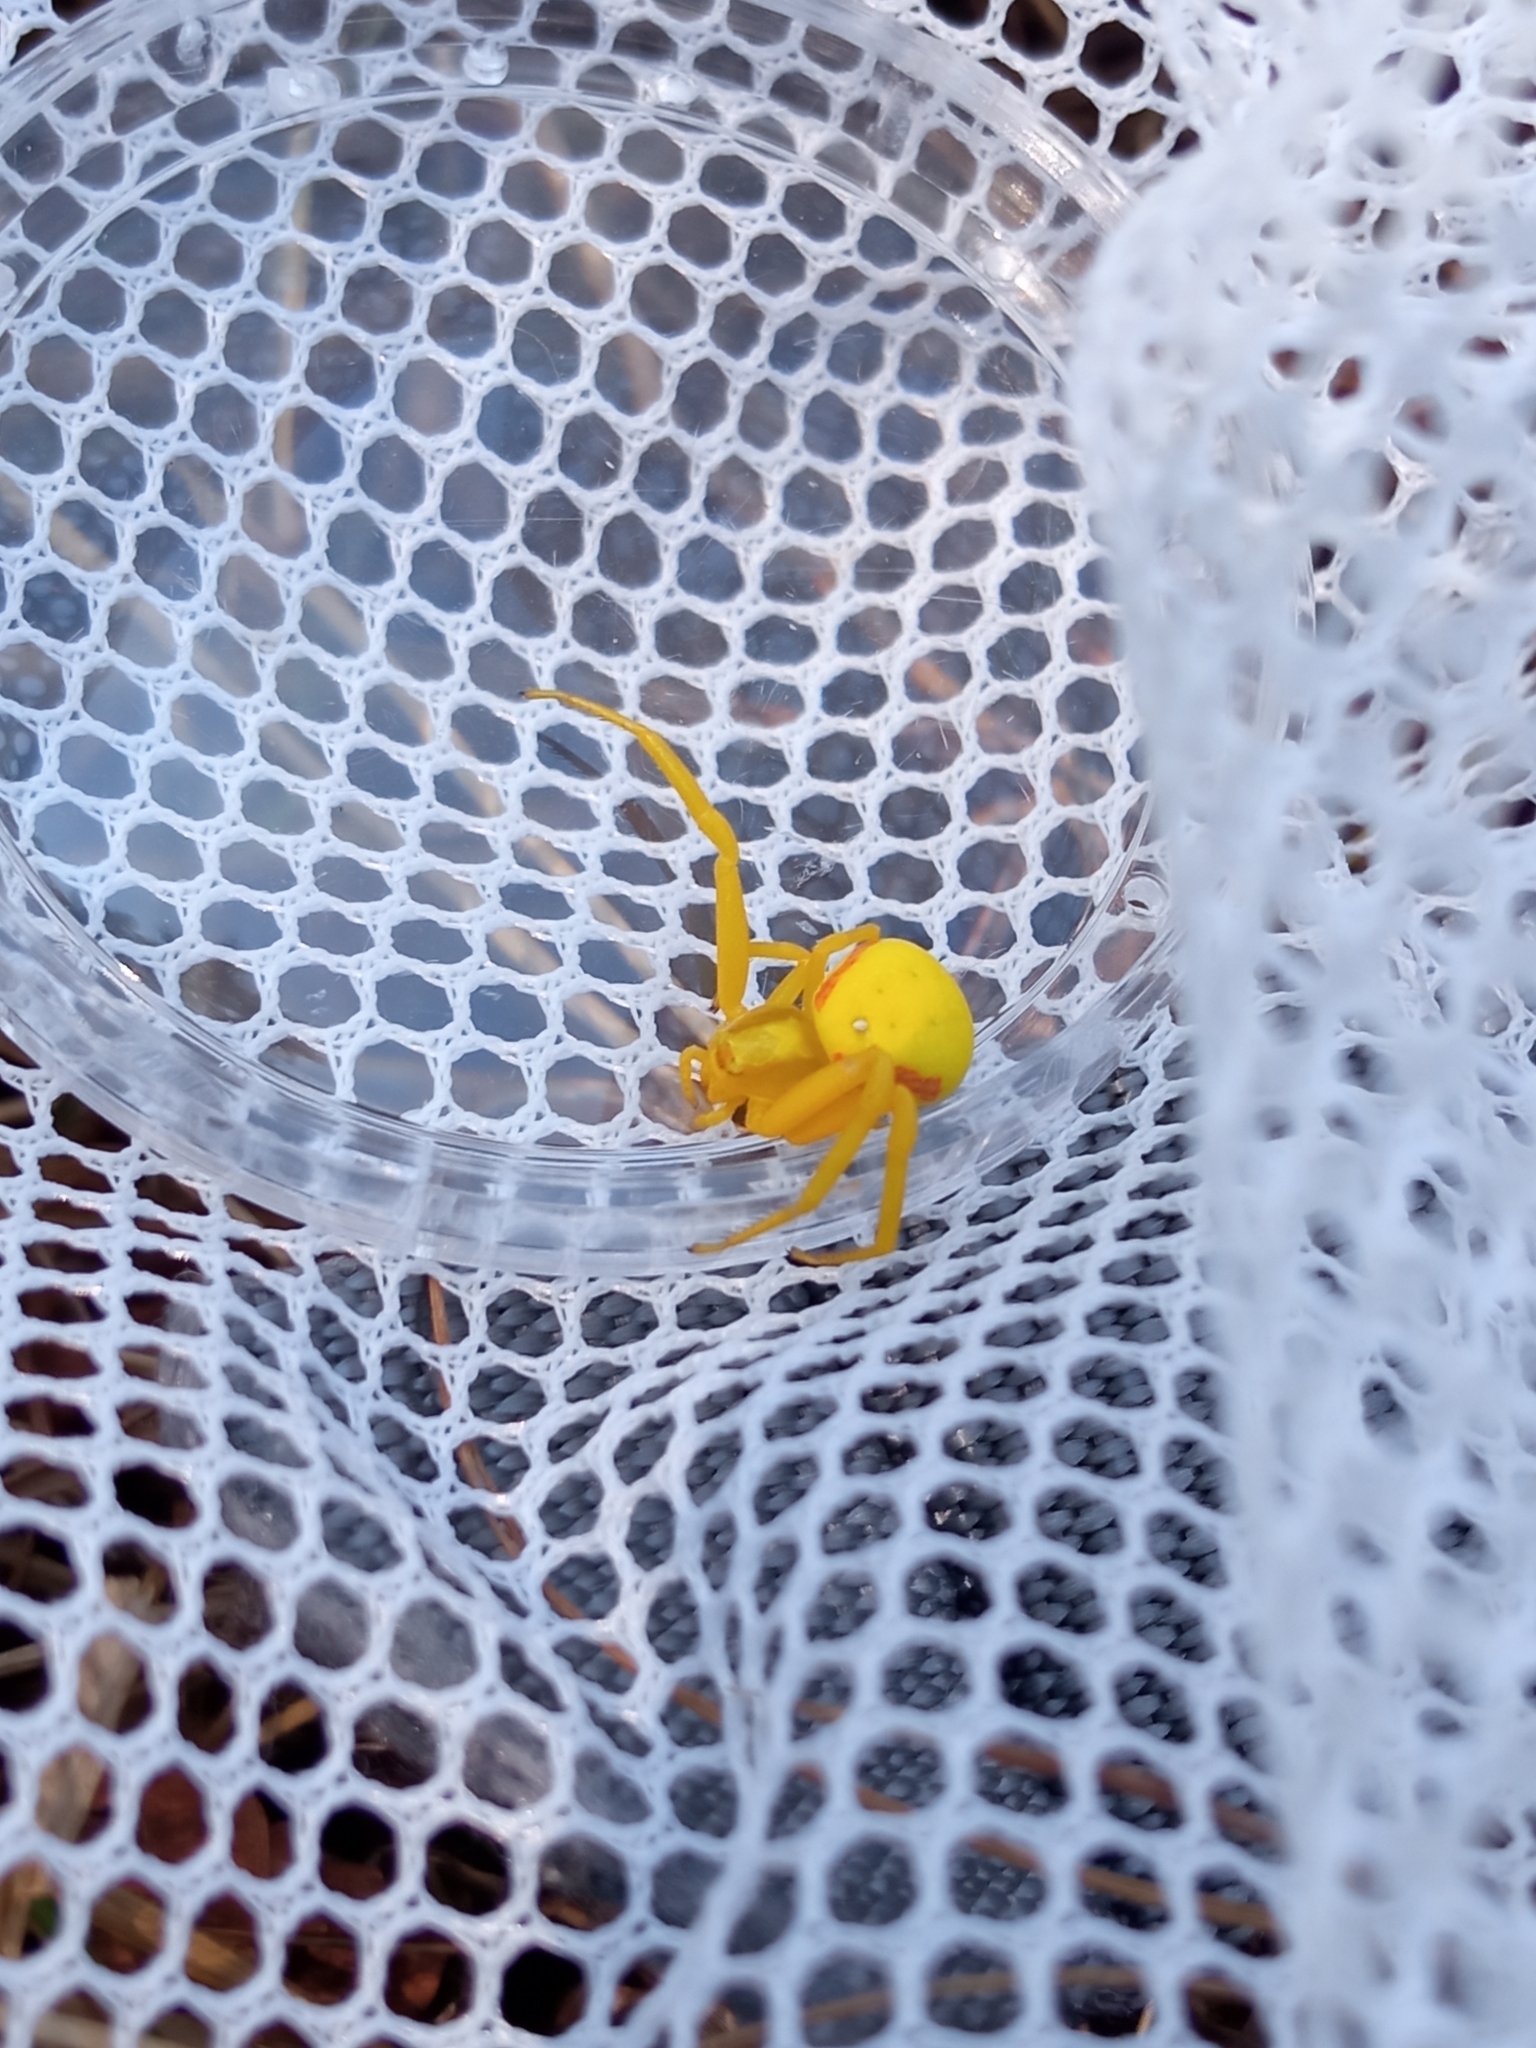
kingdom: Animalia
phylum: Arthropoda
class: Arachnida
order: Araneae
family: Thomisidae
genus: Misumena
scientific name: Misumena vatia
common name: Goldenrod crab spider
